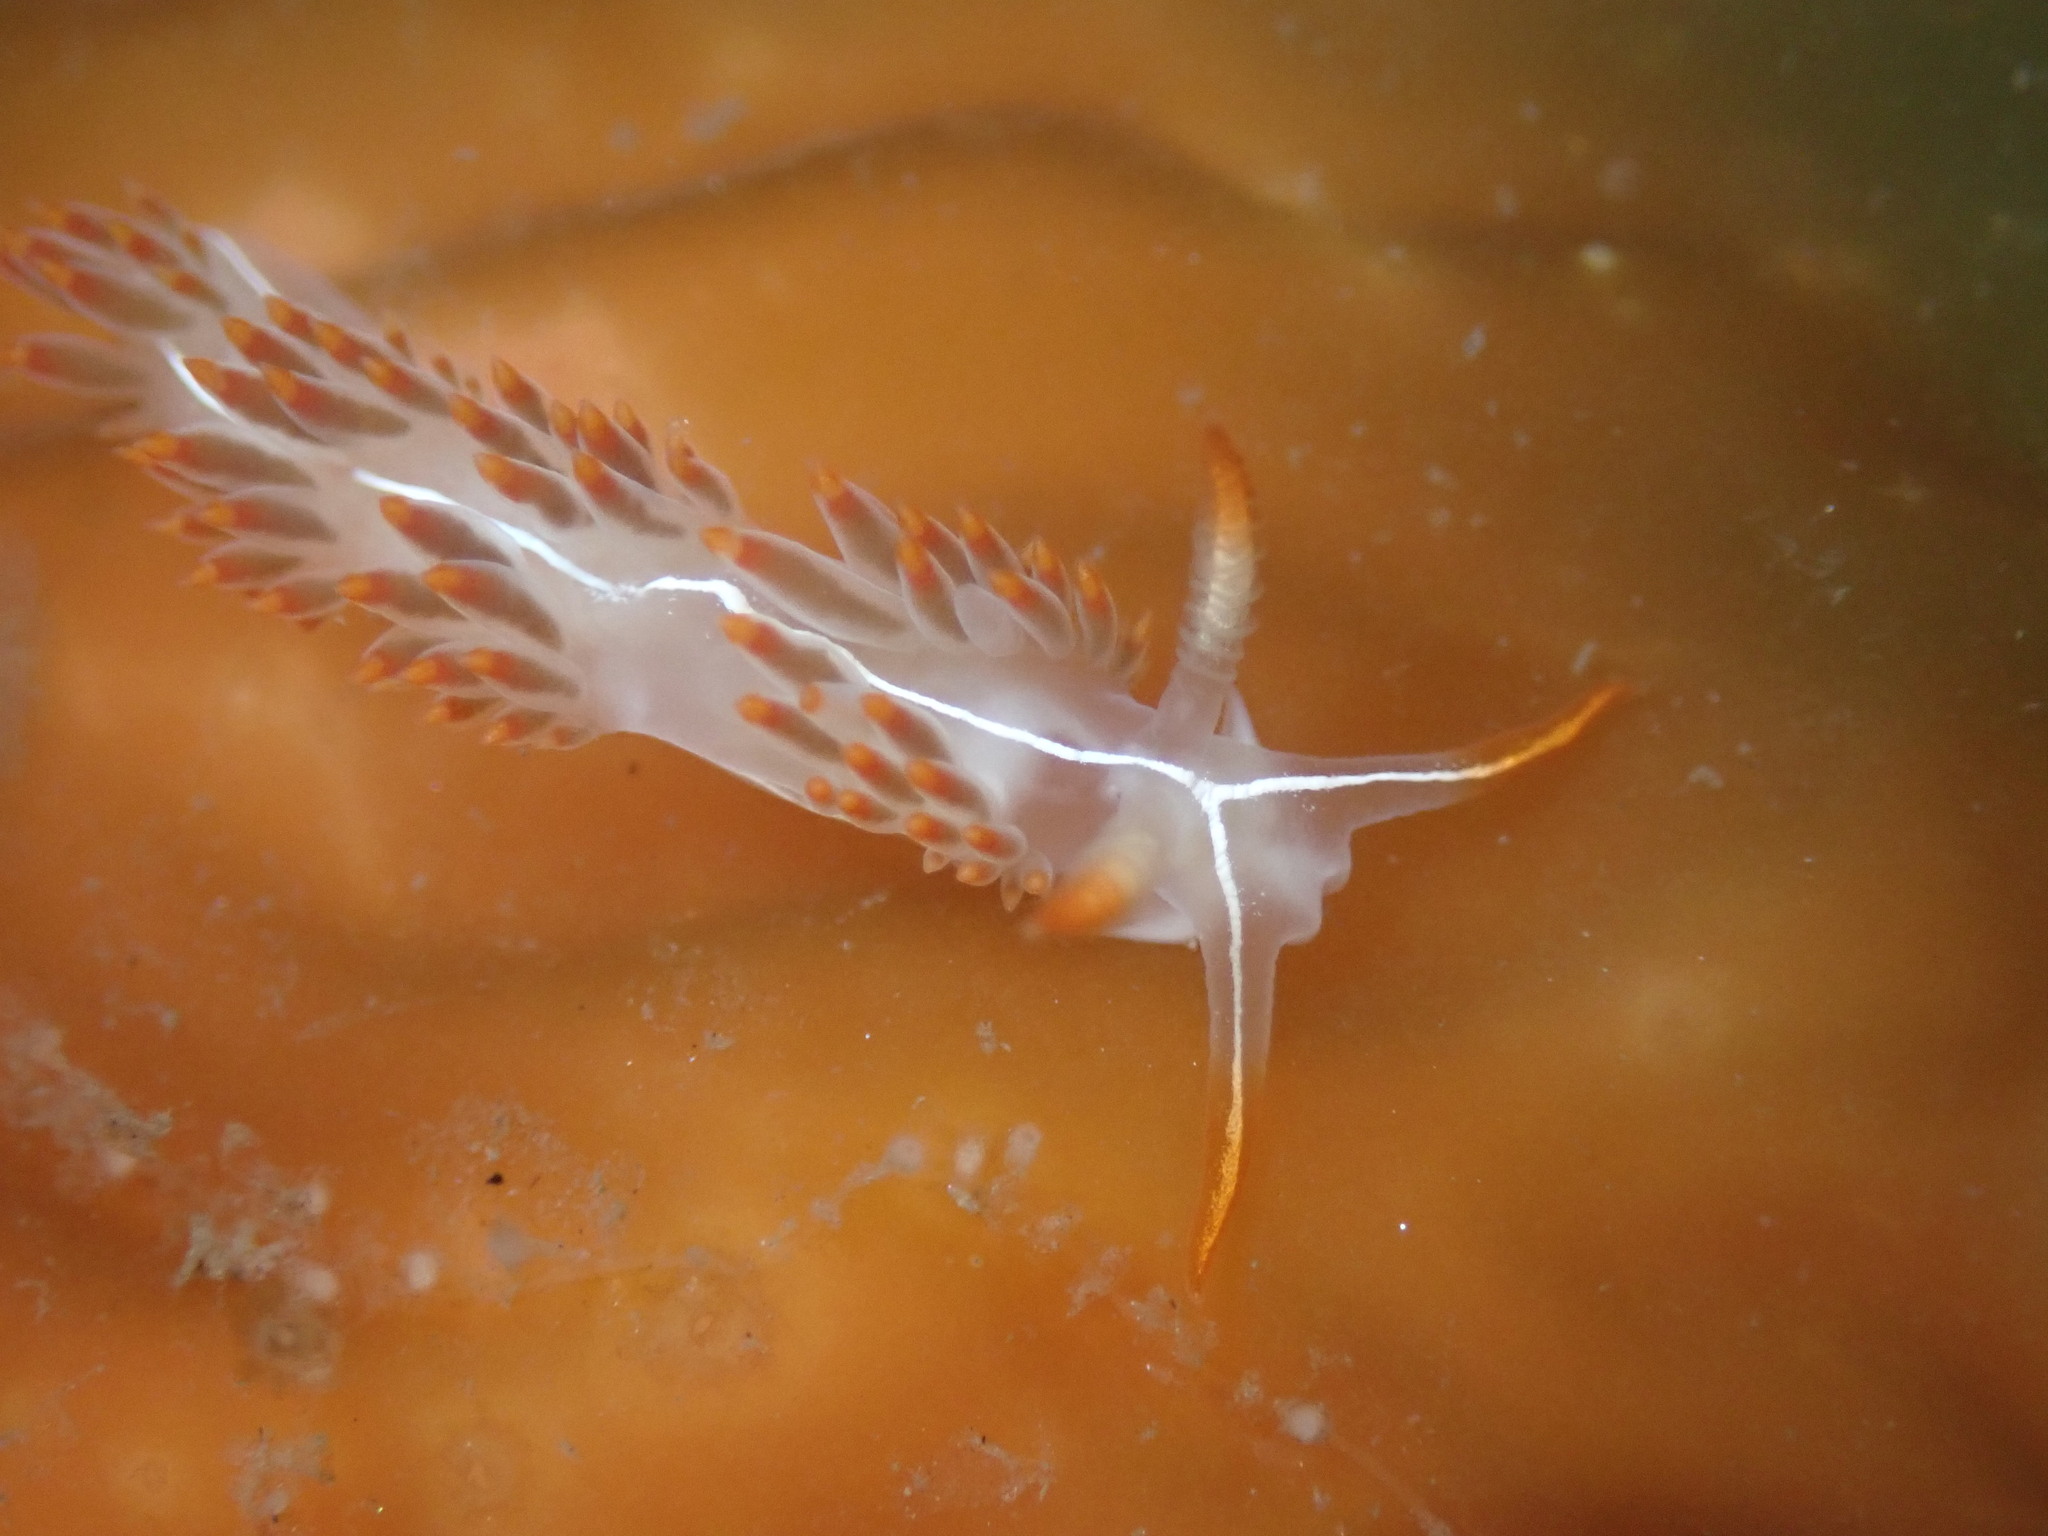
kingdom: Animalia
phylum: Mollusca
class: Gastropoda
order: Nudibranchia
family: Coryphellidae
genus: Coryphella
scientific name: Coryphella trilineata
